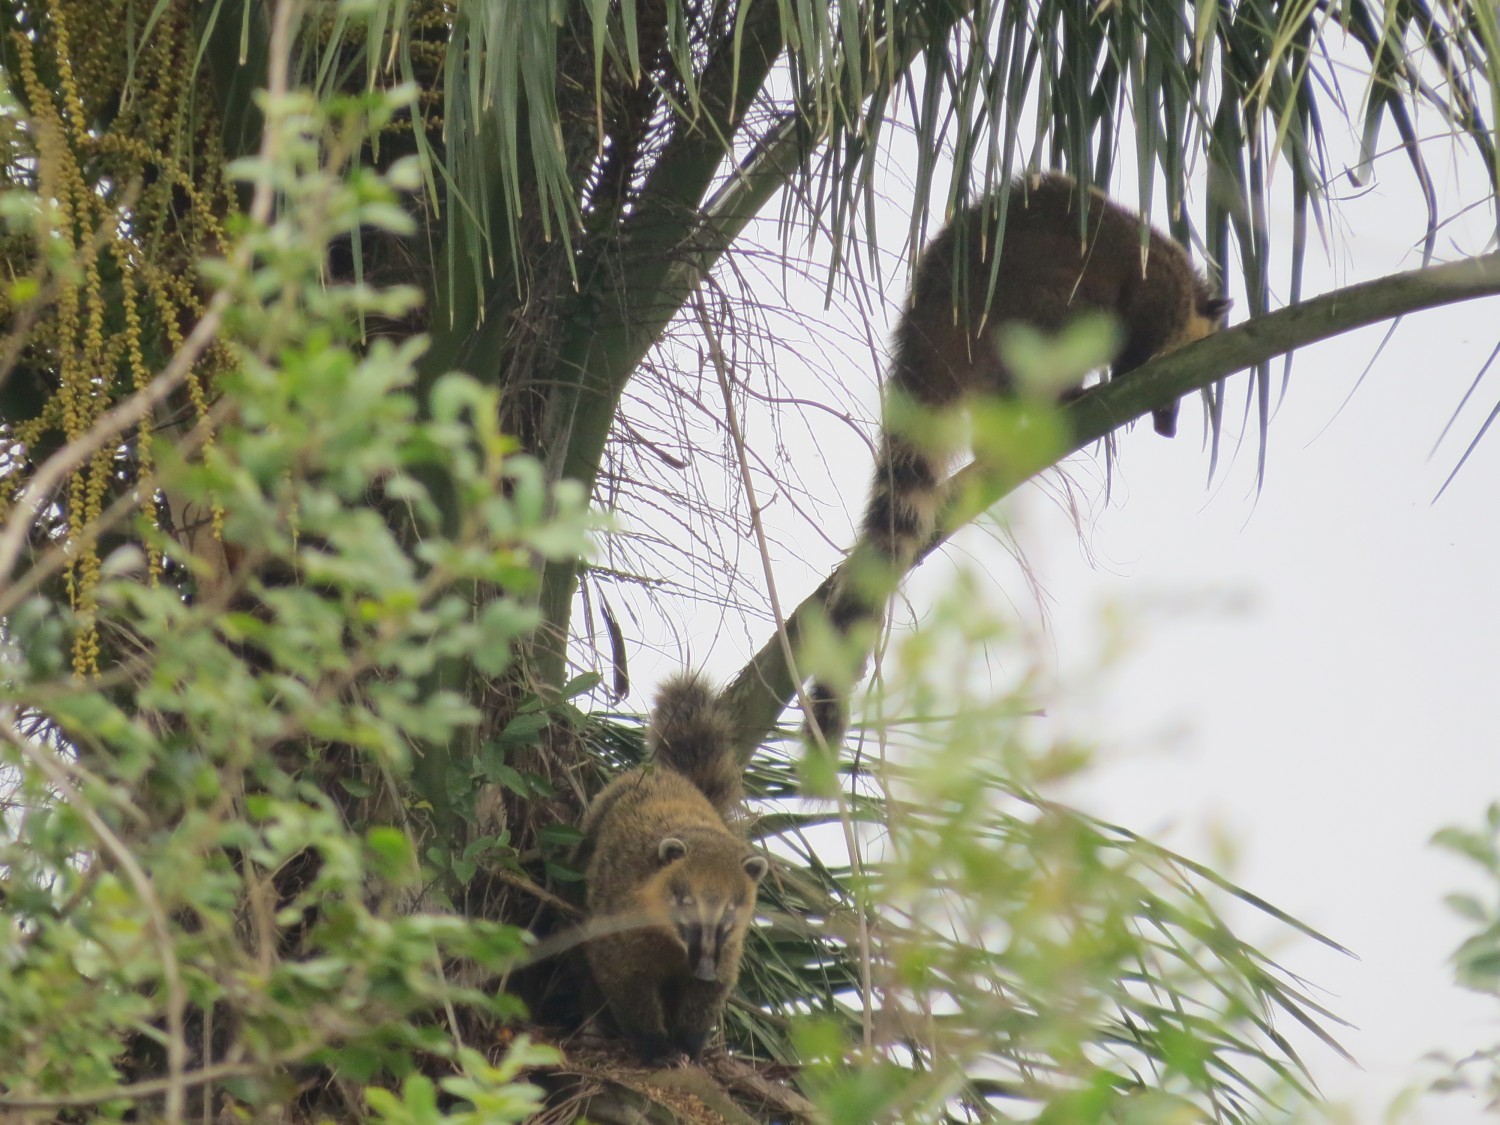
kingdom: Animalia
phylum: Chordata
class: Mammalia
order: Carnivora
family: Procyonidae
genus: Nasua
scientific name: Nasua nasua
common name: South american coati
